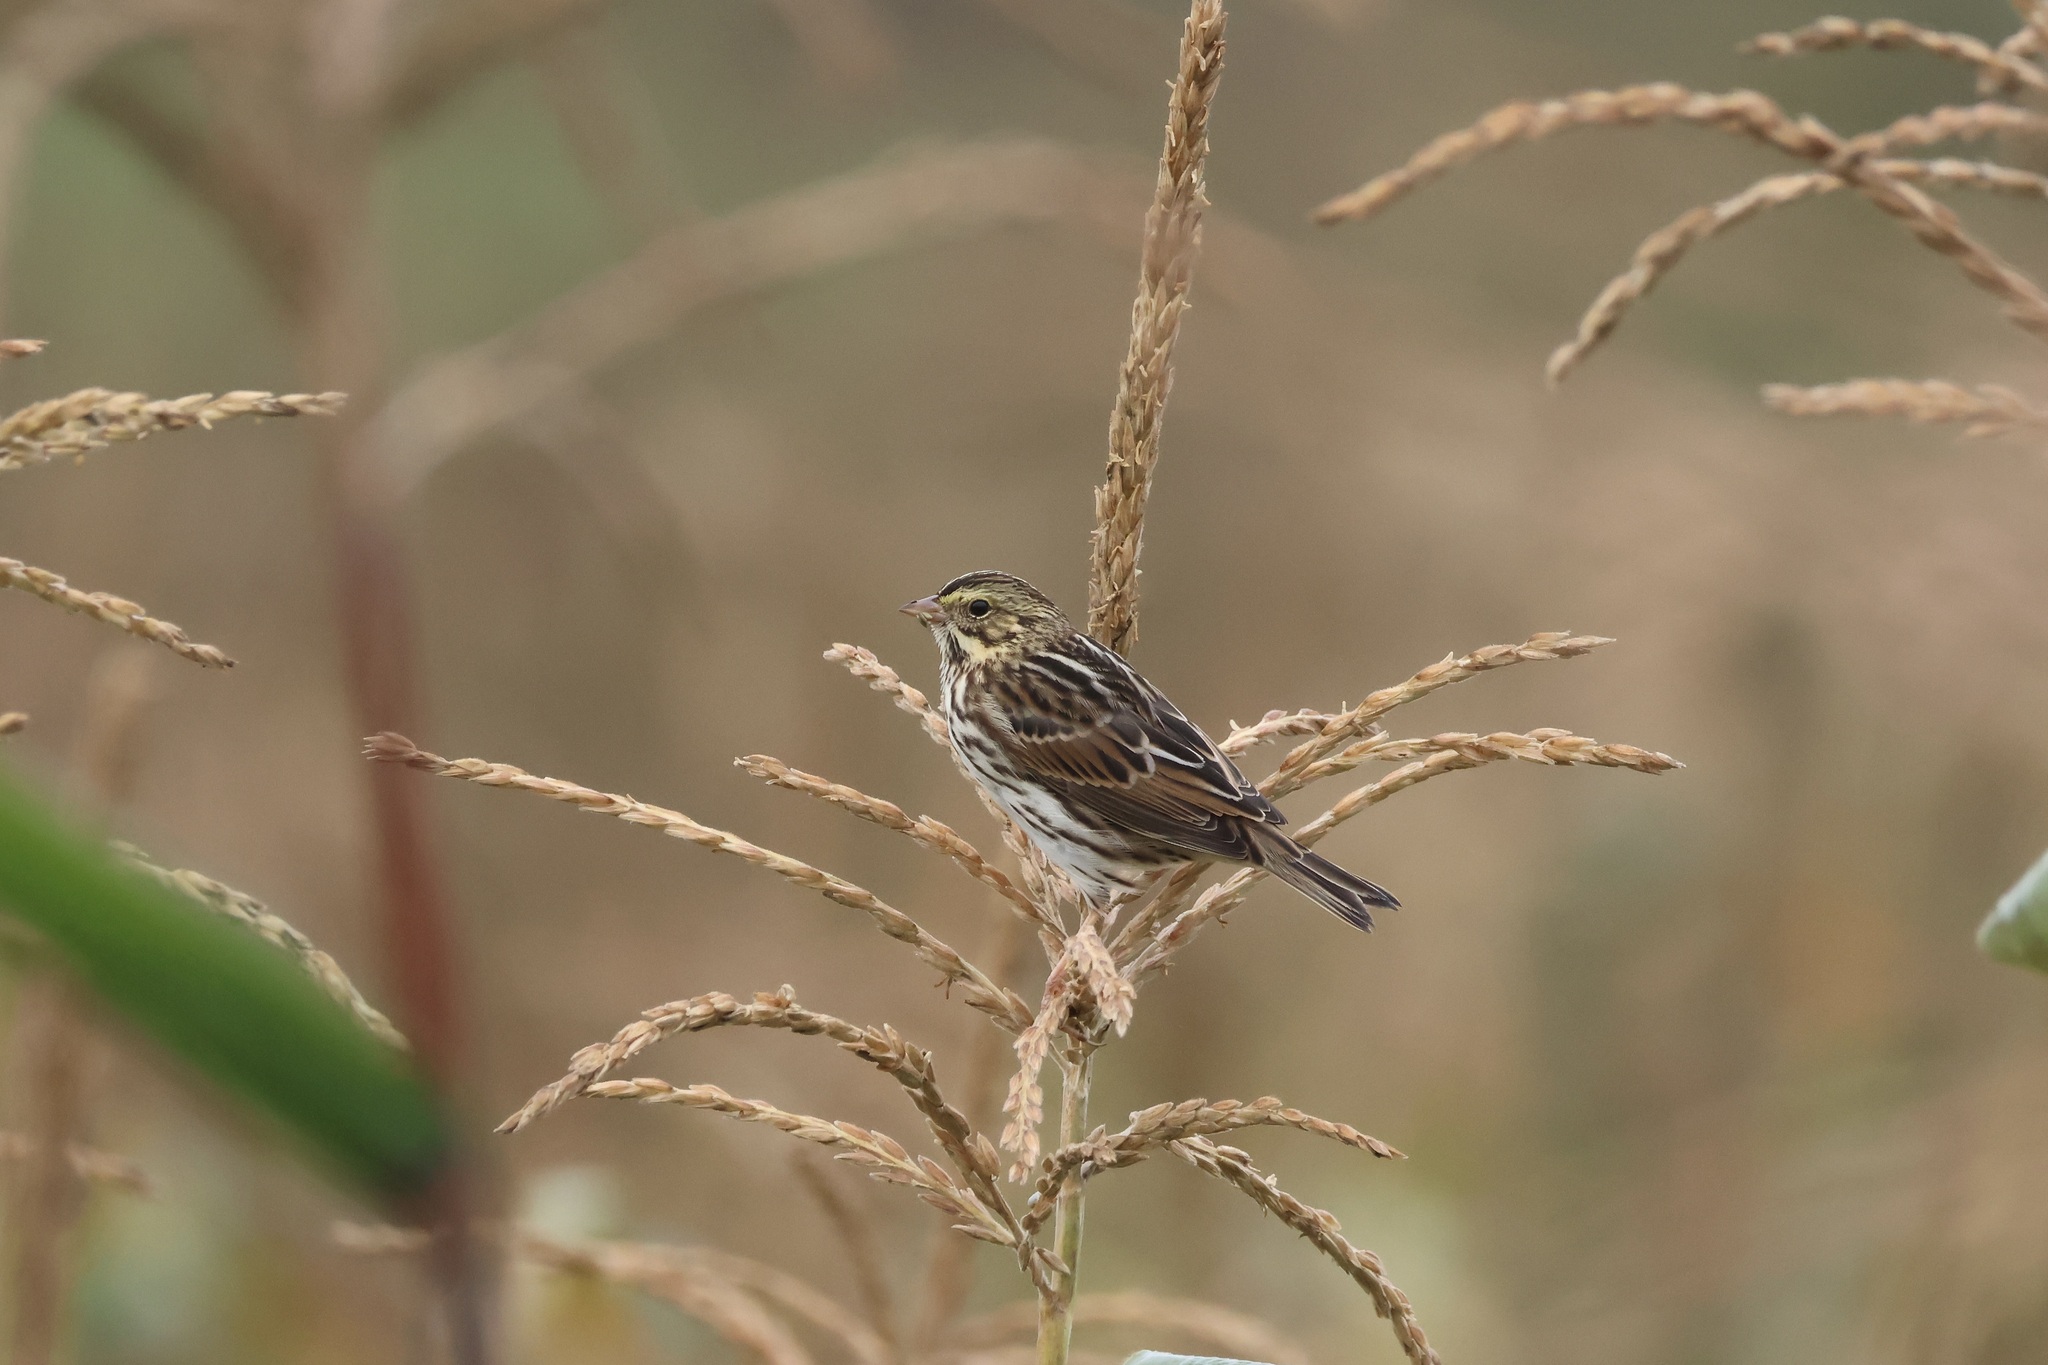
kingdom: Animalia
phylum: Chordata
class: Aves
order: Passeriformes
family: Passerellidae
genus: Passerculus
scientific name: Passerculus sandwichensis
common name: Savannah sparrow
